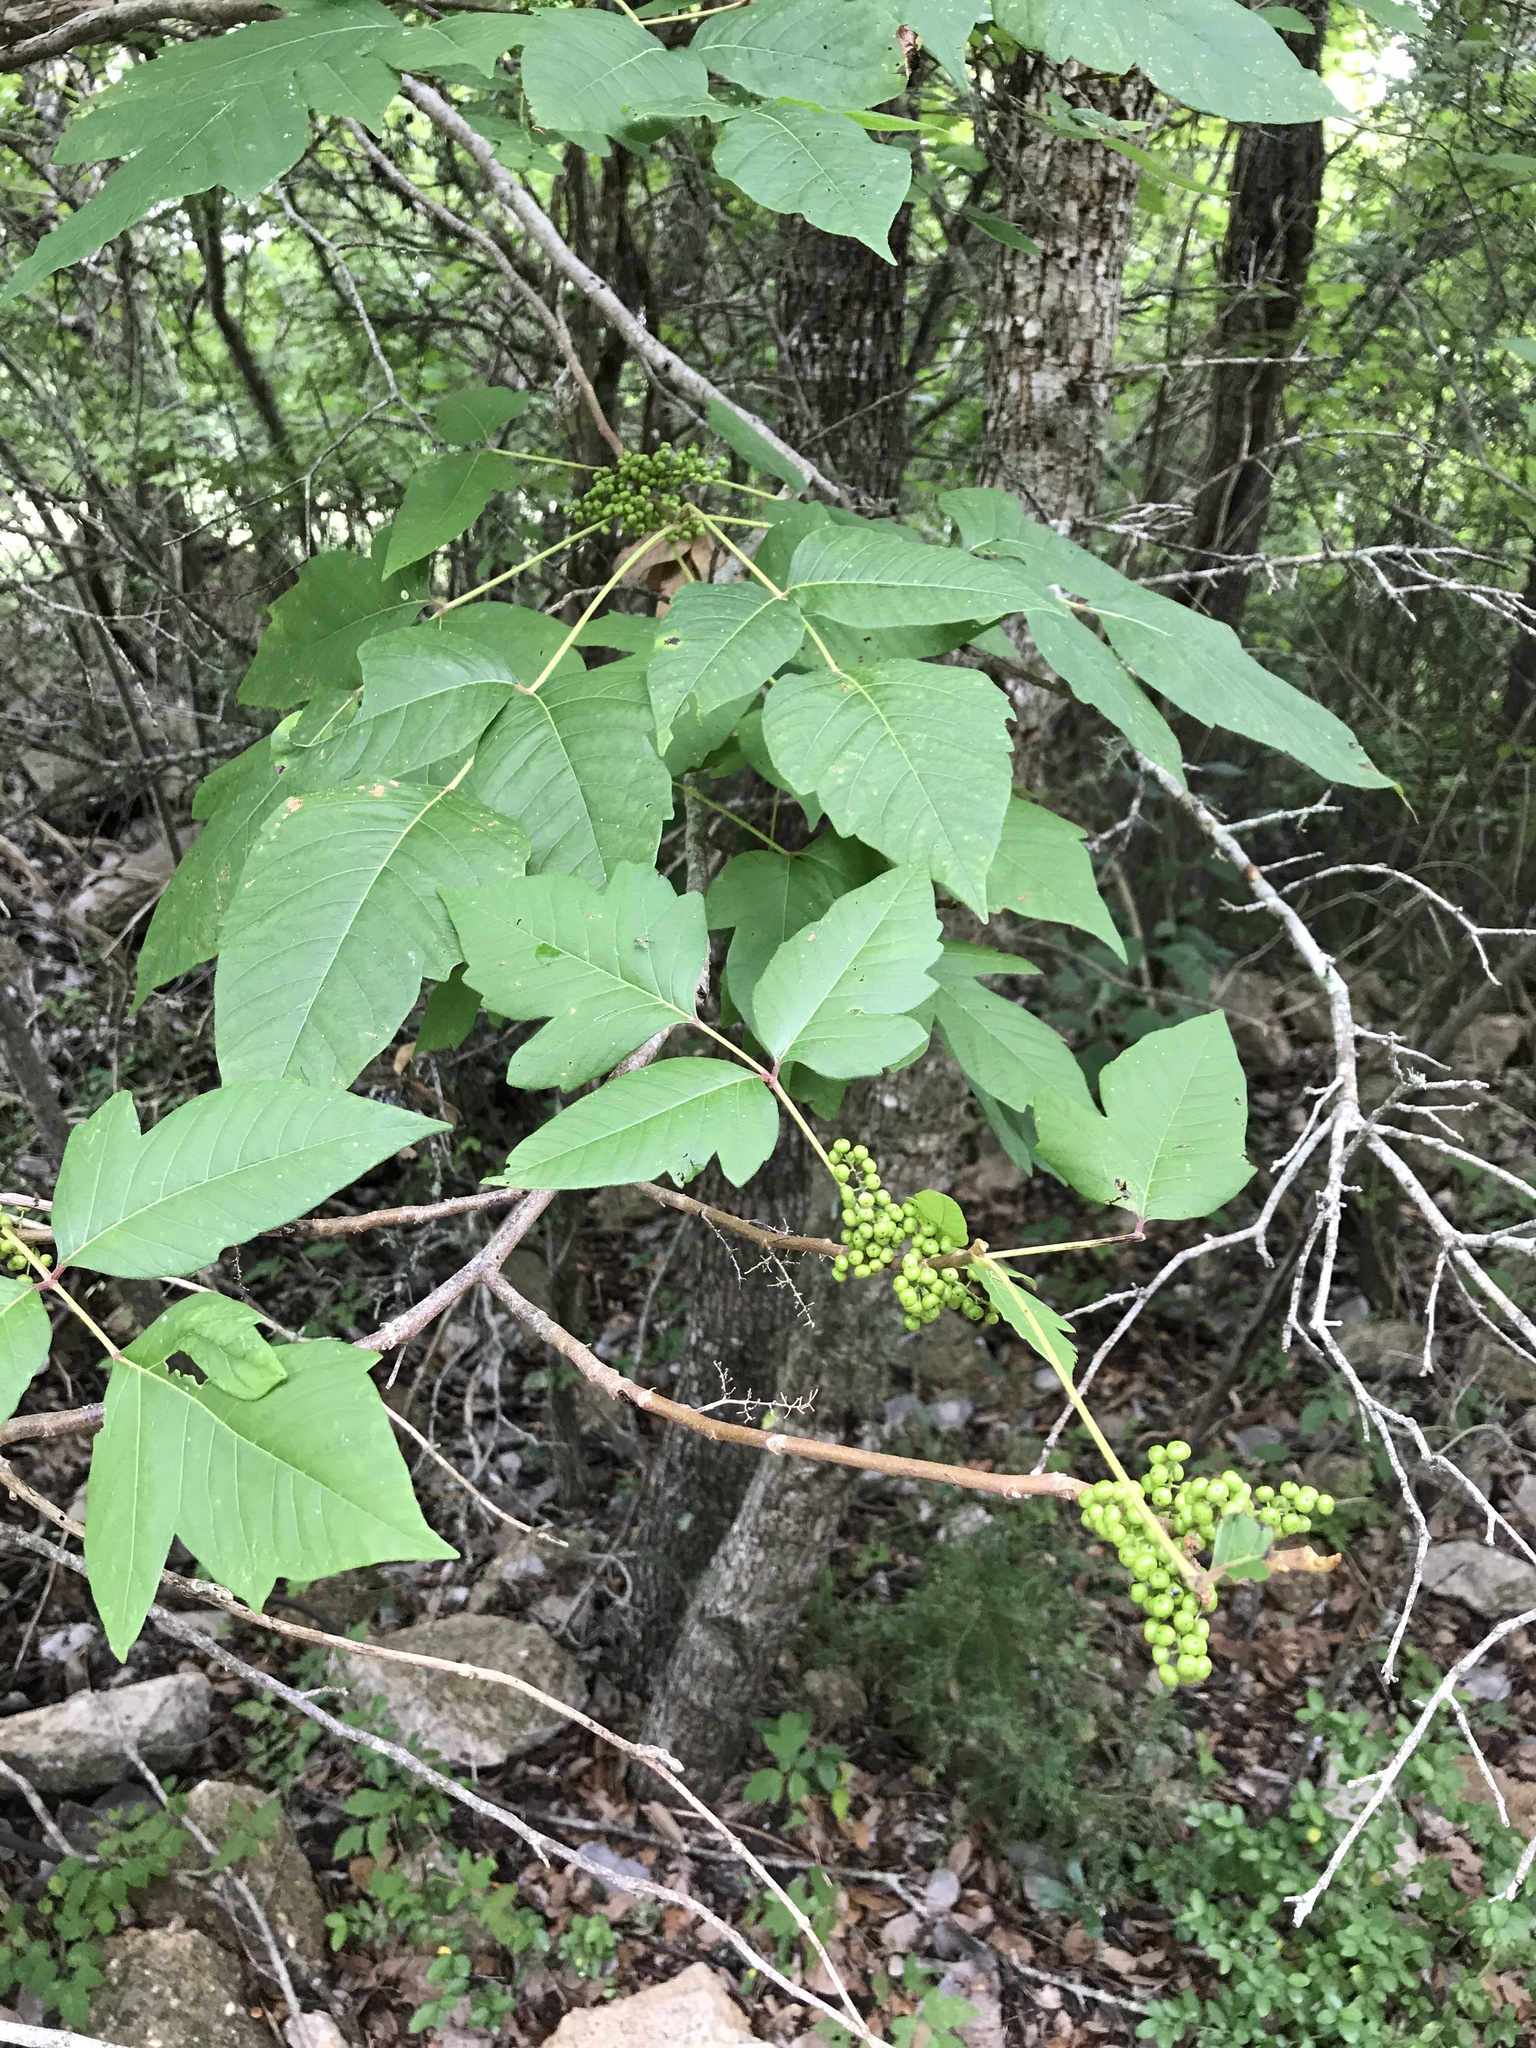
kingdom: Plantae
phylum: Tracheophyta
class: Magnoliopsida
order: Sapindales
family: Anacardiaceae
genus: Toxicodendron
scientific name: Toxicodendron radicans
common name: Poison ivy
